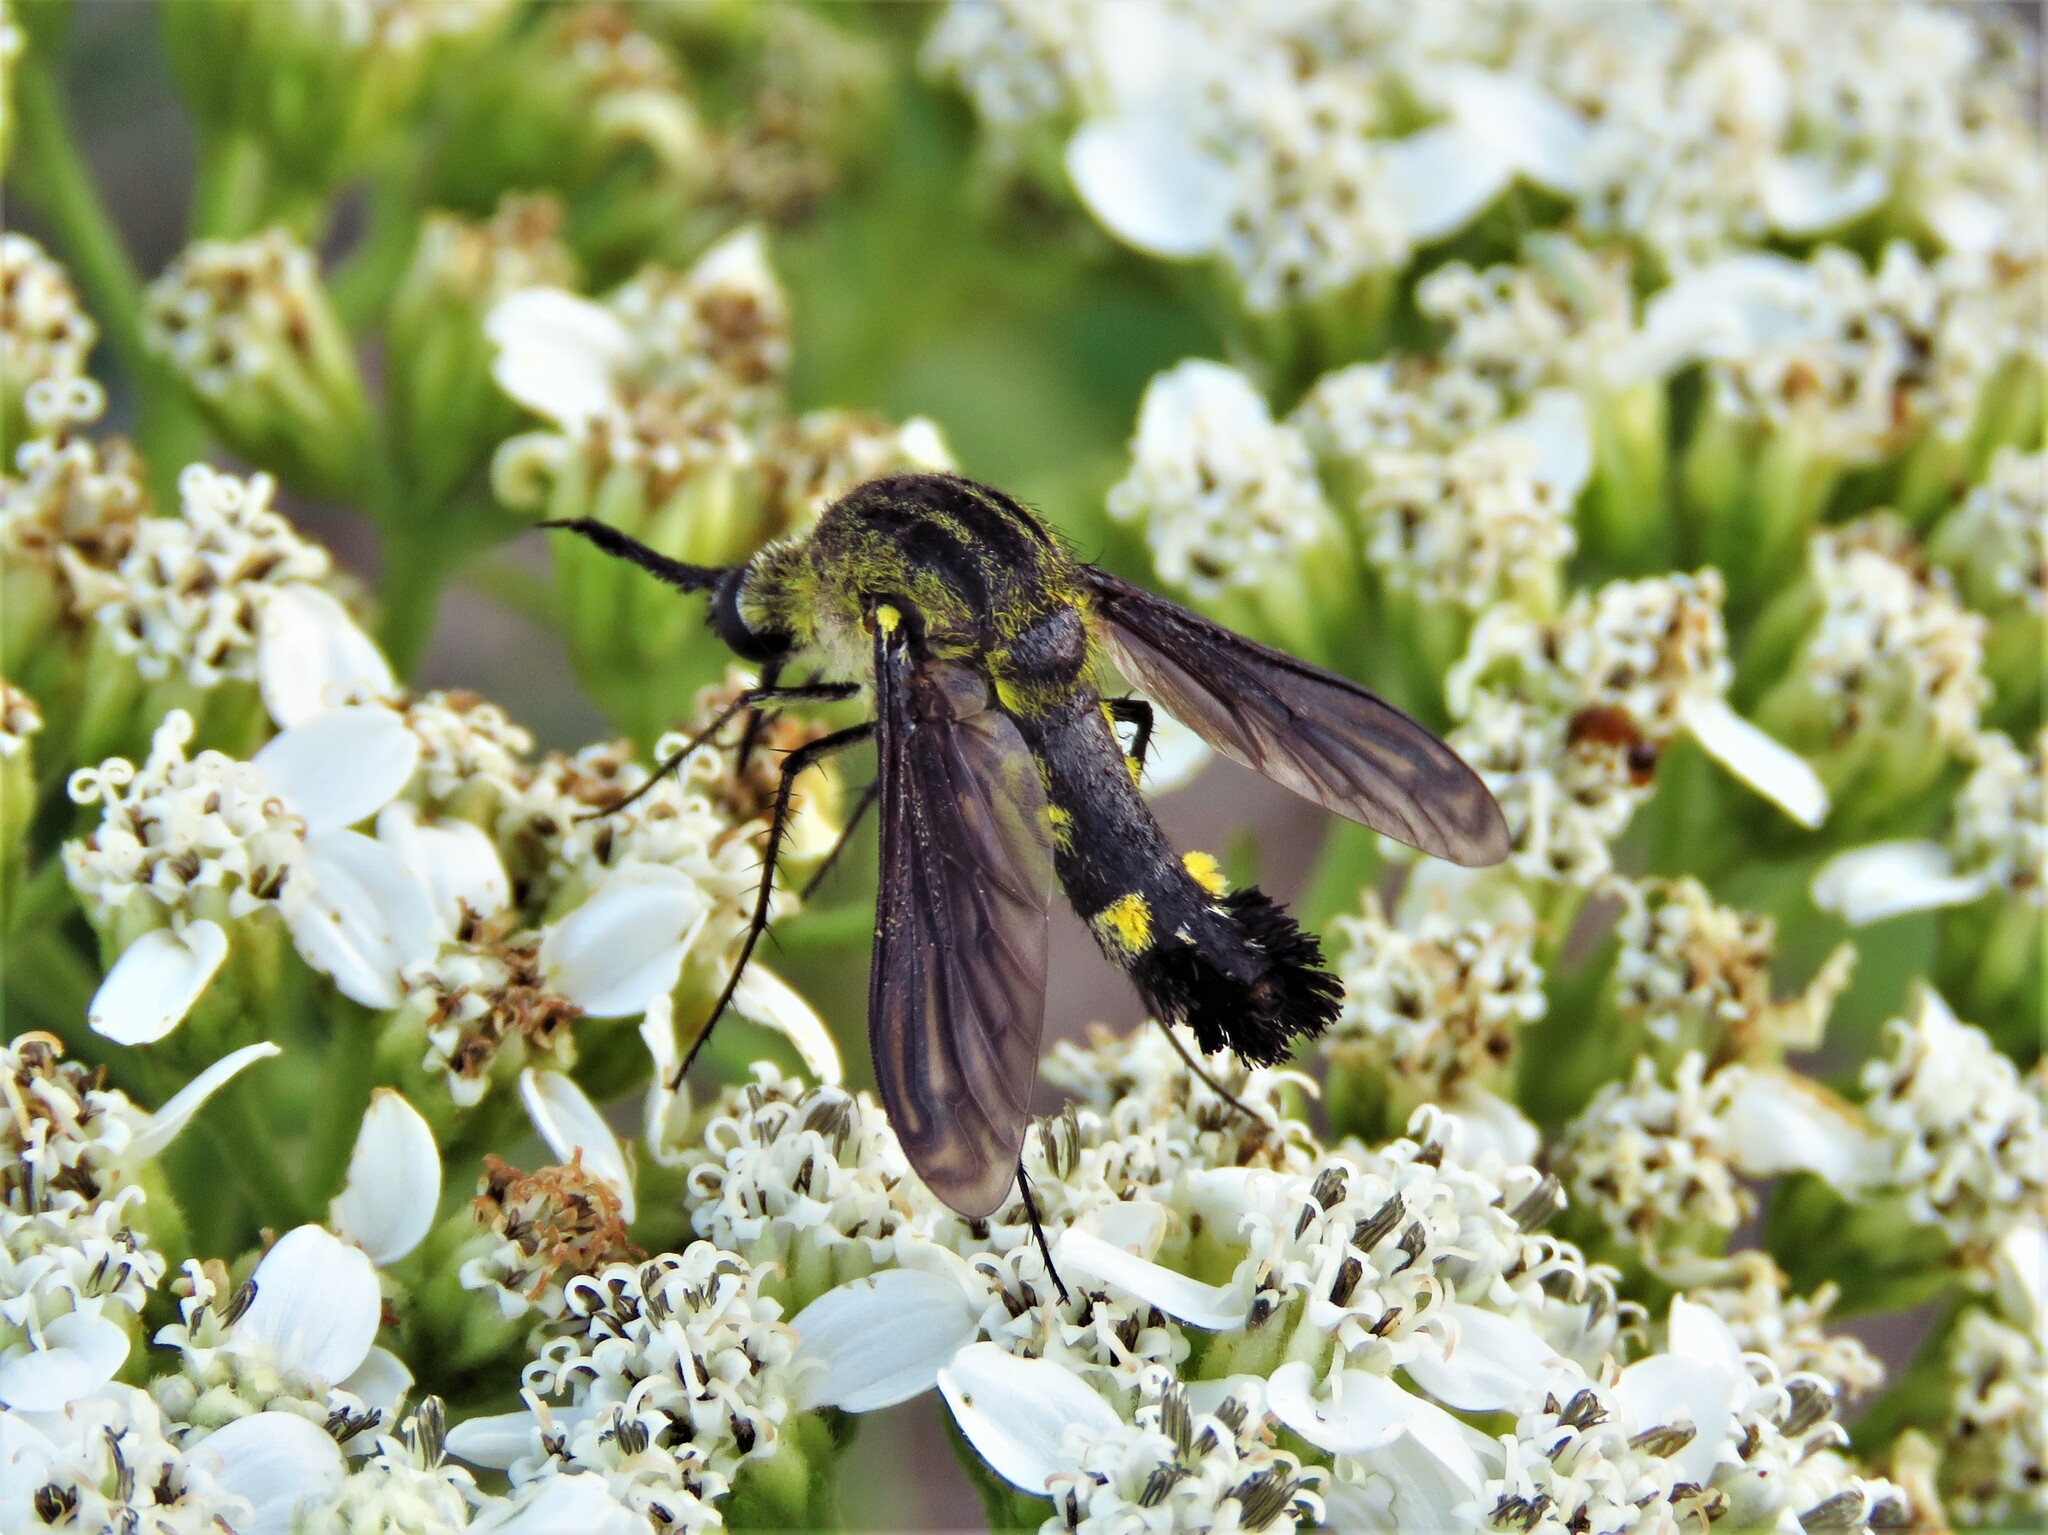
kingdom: Animalia
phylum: Arthropoda
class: Insecta
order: Diptera
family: Bombyliidae
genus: Lepidophora
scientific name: Lepidophora lepidocera
